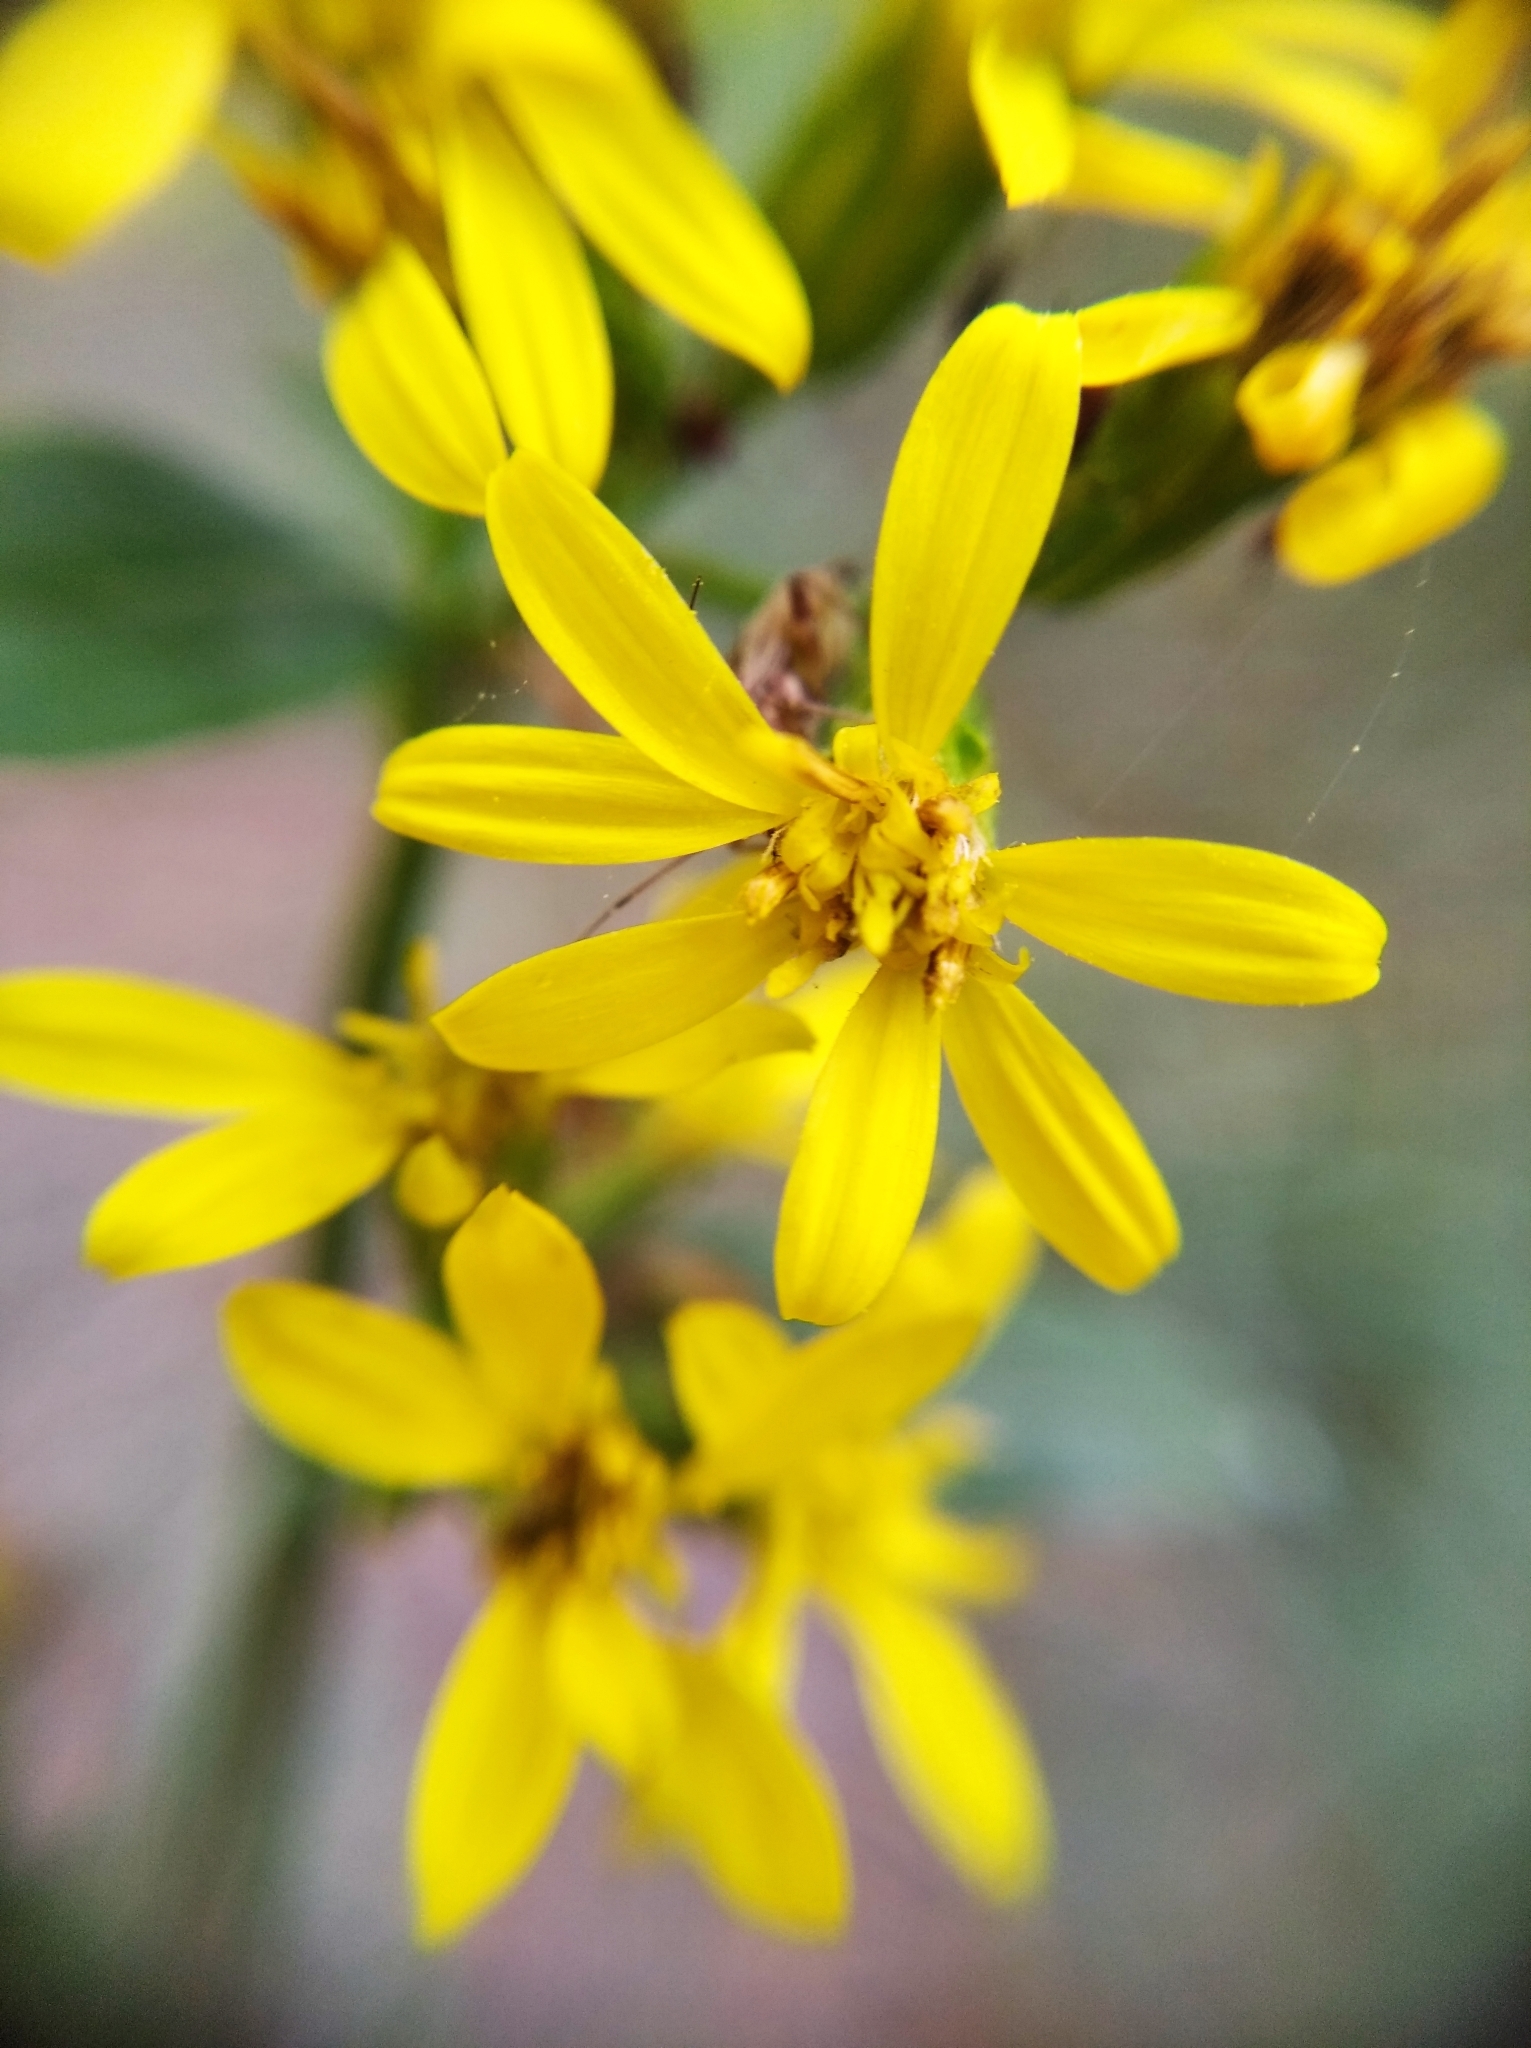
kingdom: Plantae
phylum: Tracheophyta
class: Magnoliopsida
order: Asterales
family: Asteraceae
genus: Solidago
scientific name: Solidago virgaurea
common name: Goldenrod
